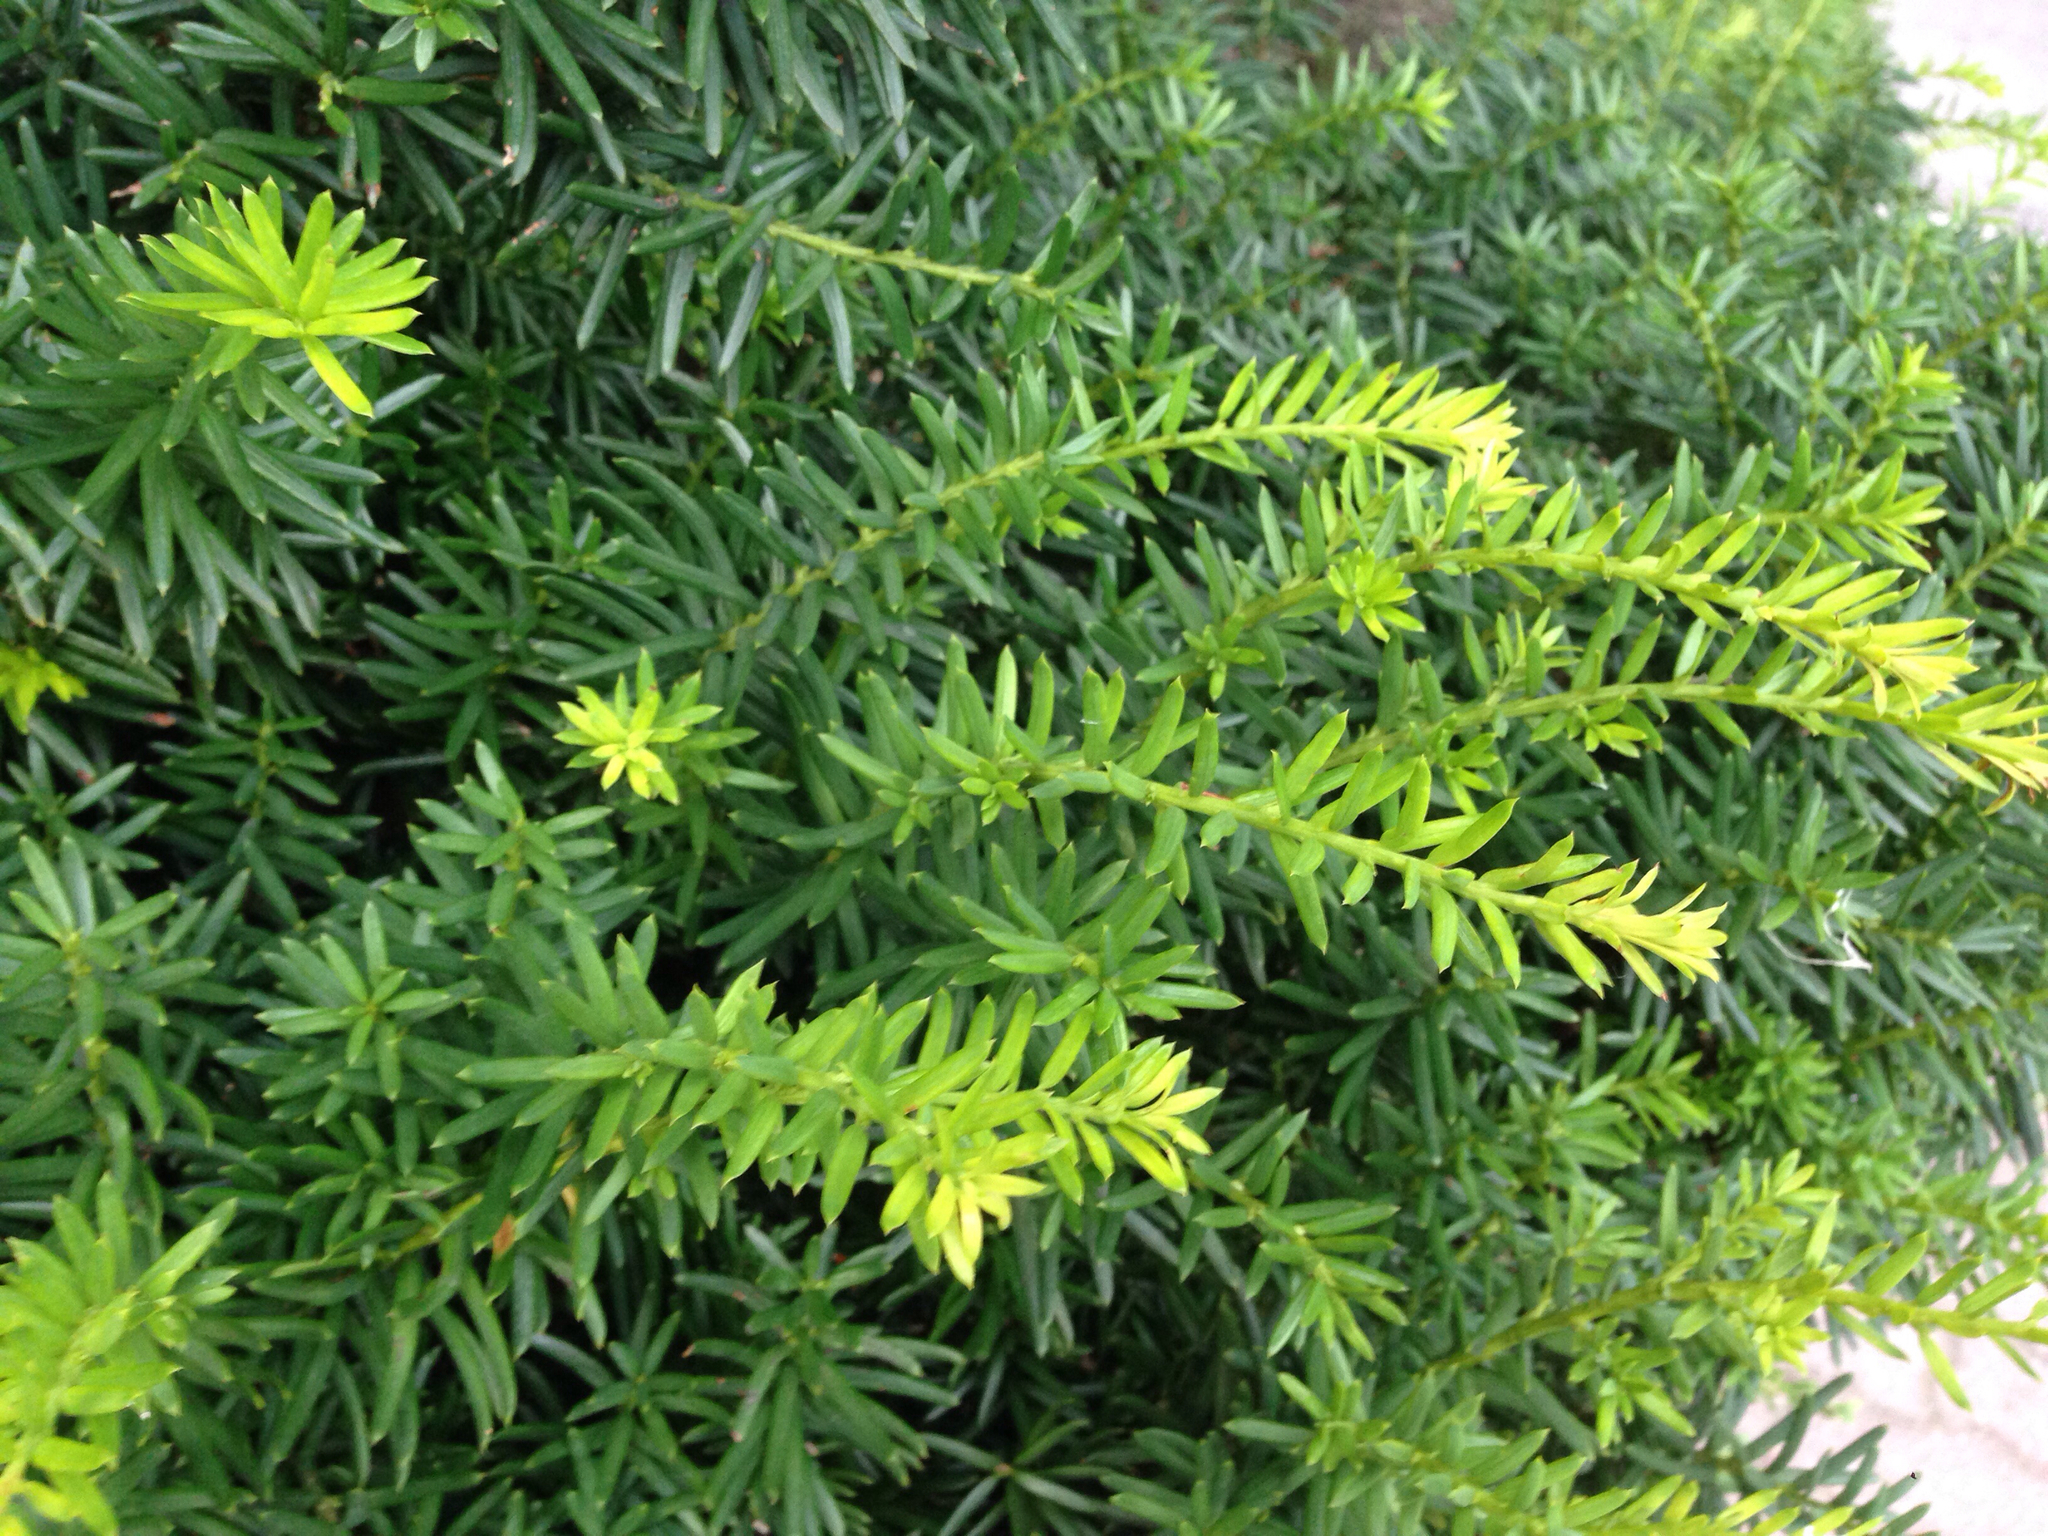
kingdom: Plantae
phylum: Tracheophyta
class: Pinopsida
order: Pinales
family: Taxaceae
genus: Taxus
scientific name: Taxus cuspidata
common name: Japanese yew
